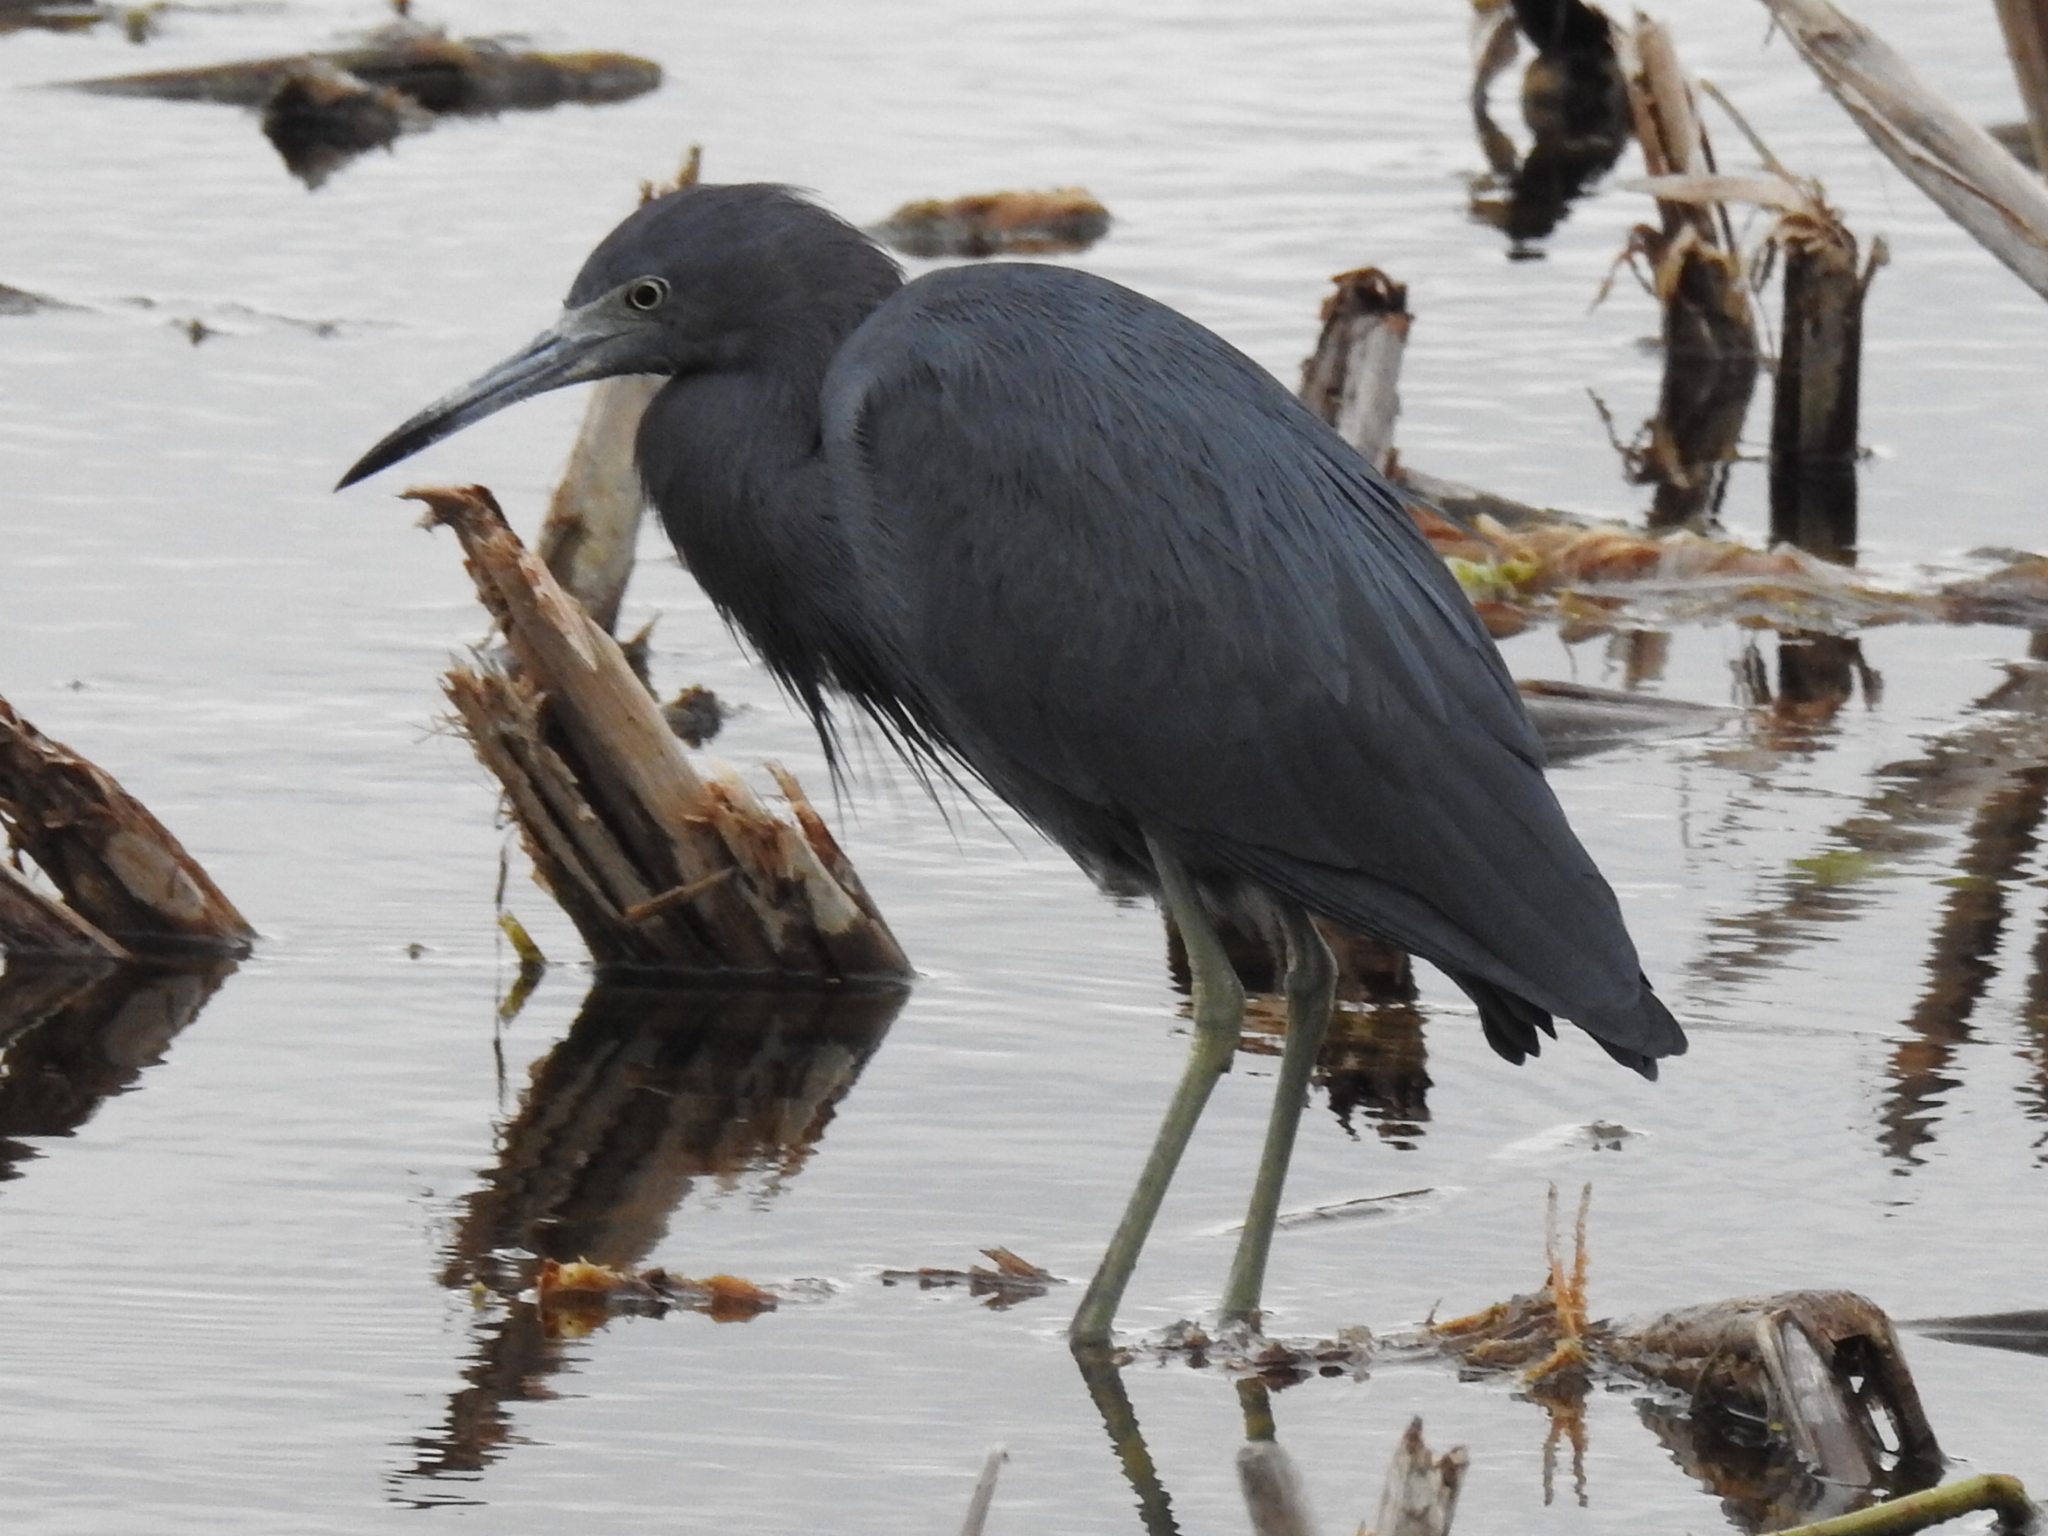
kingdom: Animalia
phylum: Chordata
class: Aves
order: Pelecaniformes
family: Ardeidae
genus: Egretta
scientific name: Egretta caerulea
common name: Little blue heron
